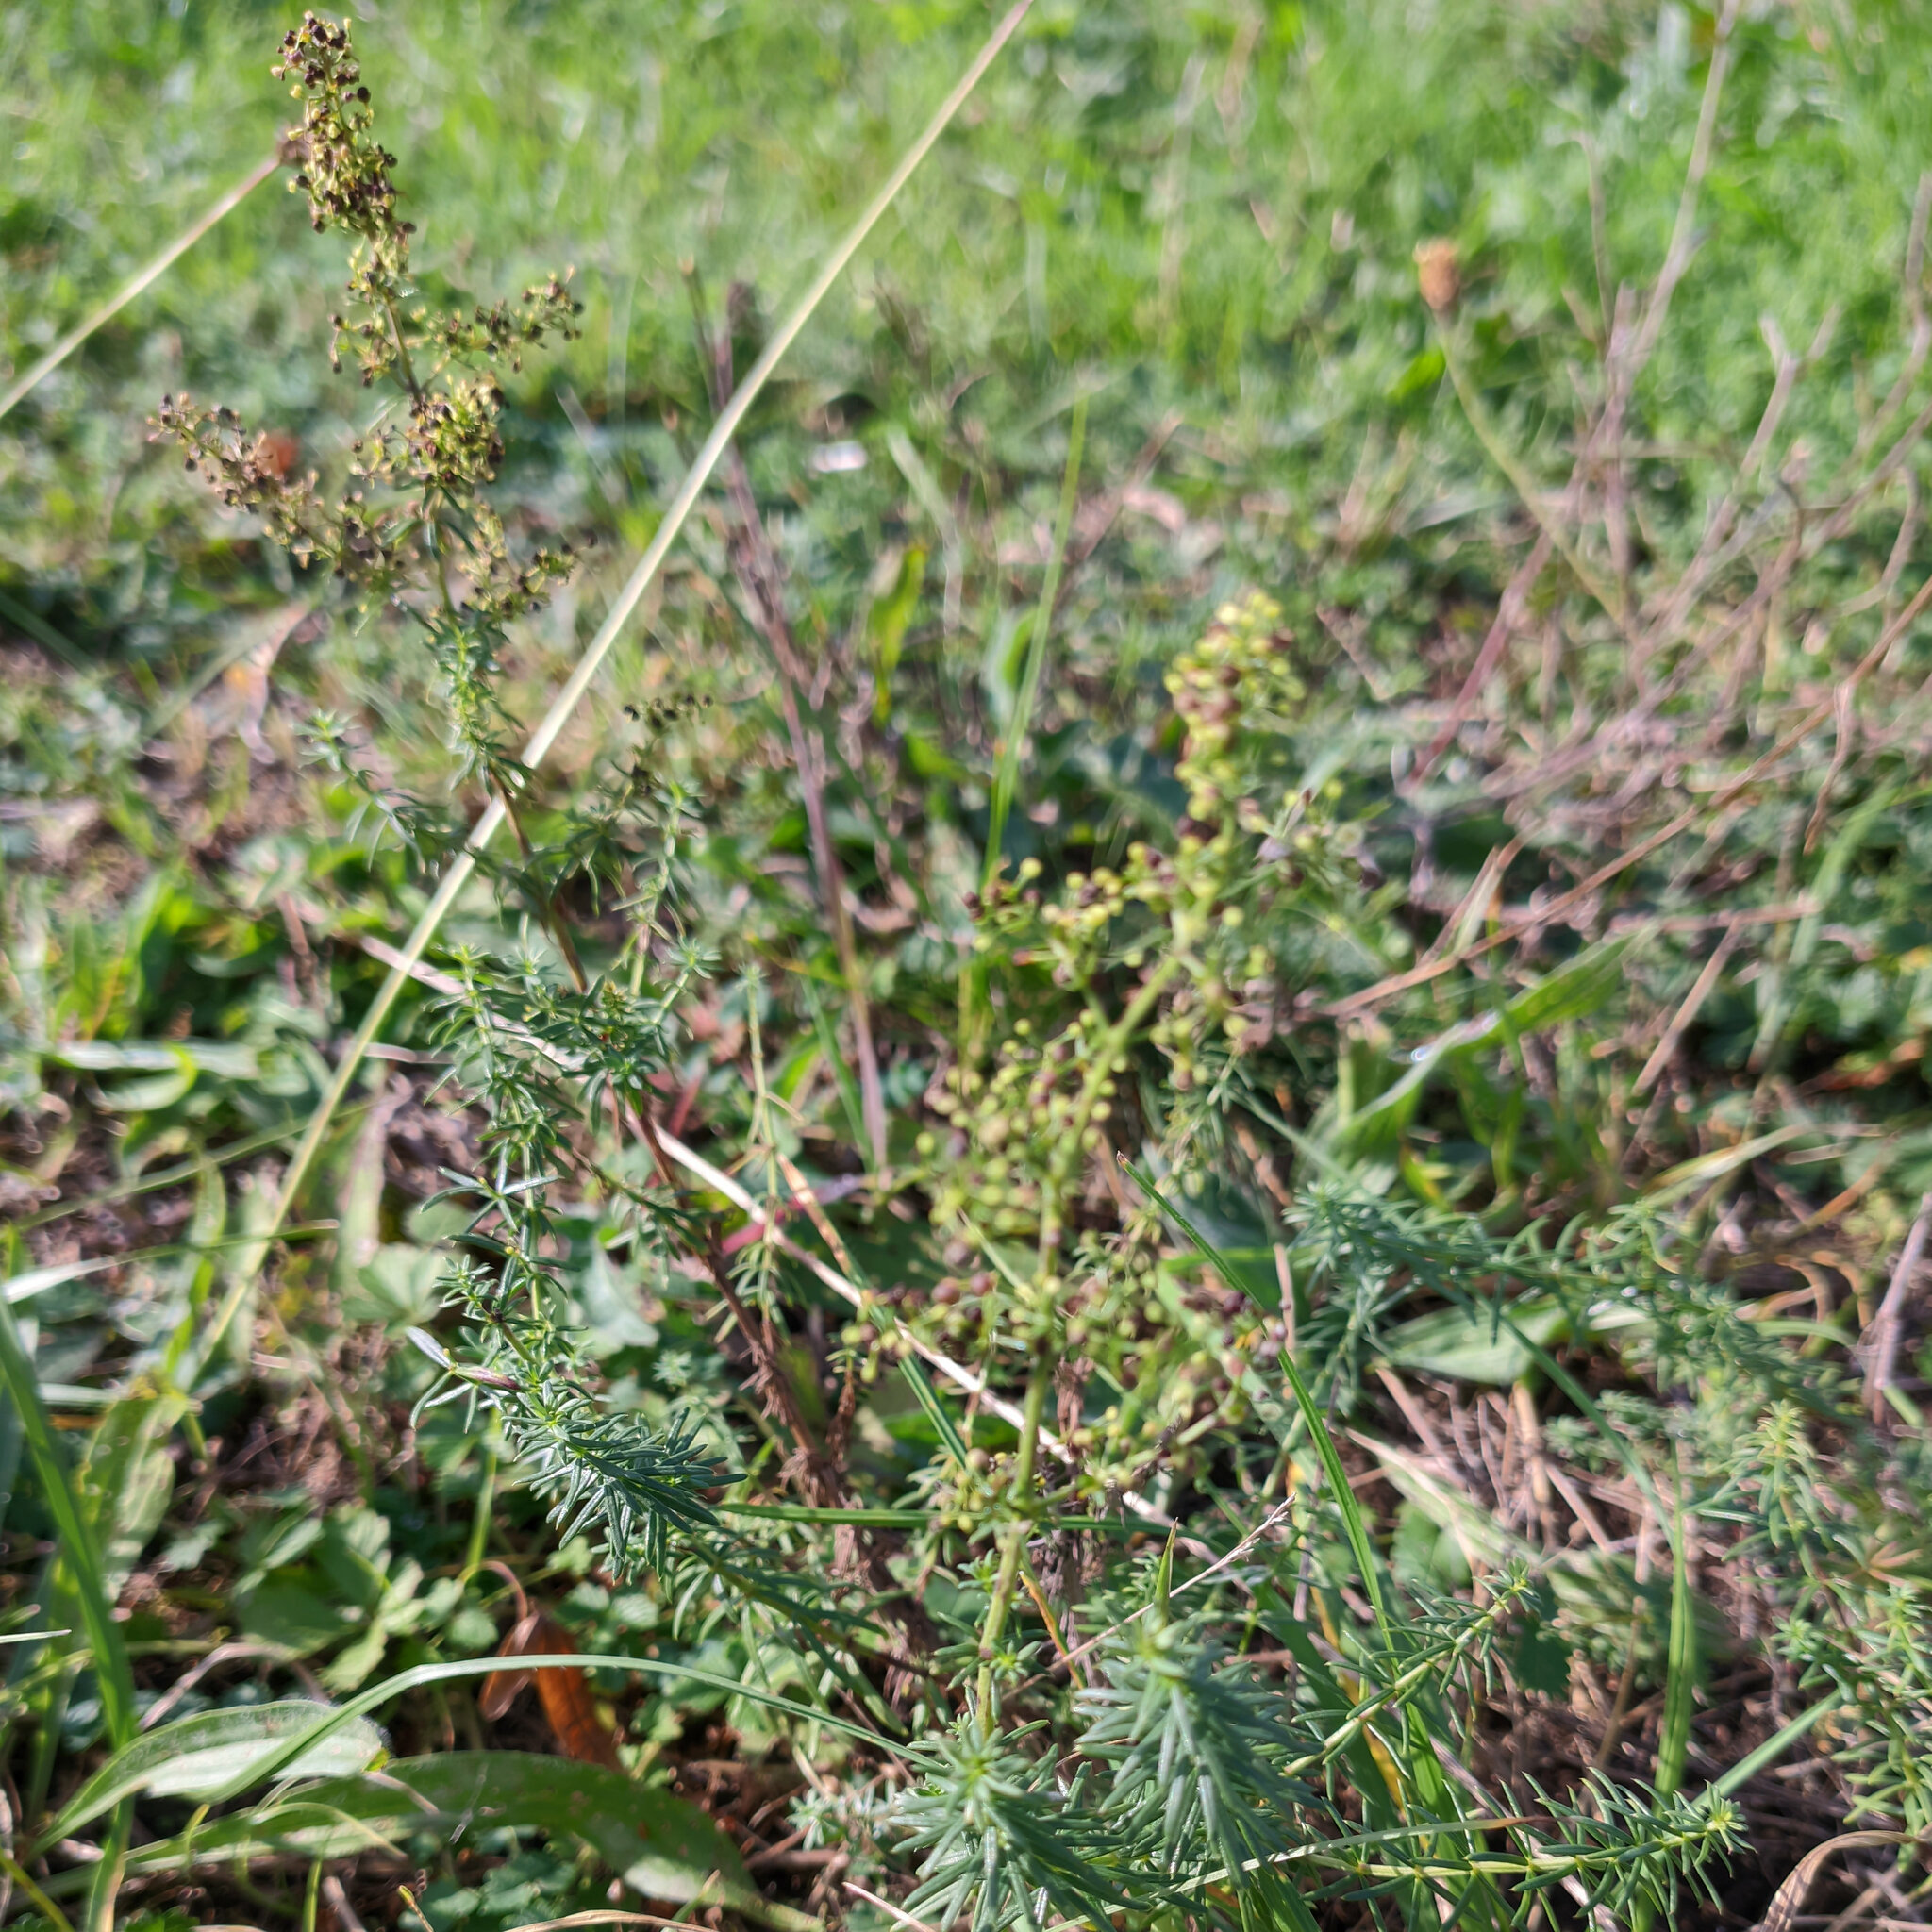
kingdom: Plantae
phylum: Tracheophyta
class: Magnoliopsida
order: Gentianales
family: Rubiaceae
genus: Galium
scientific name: Galium verum
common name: Lady's bedstraw
